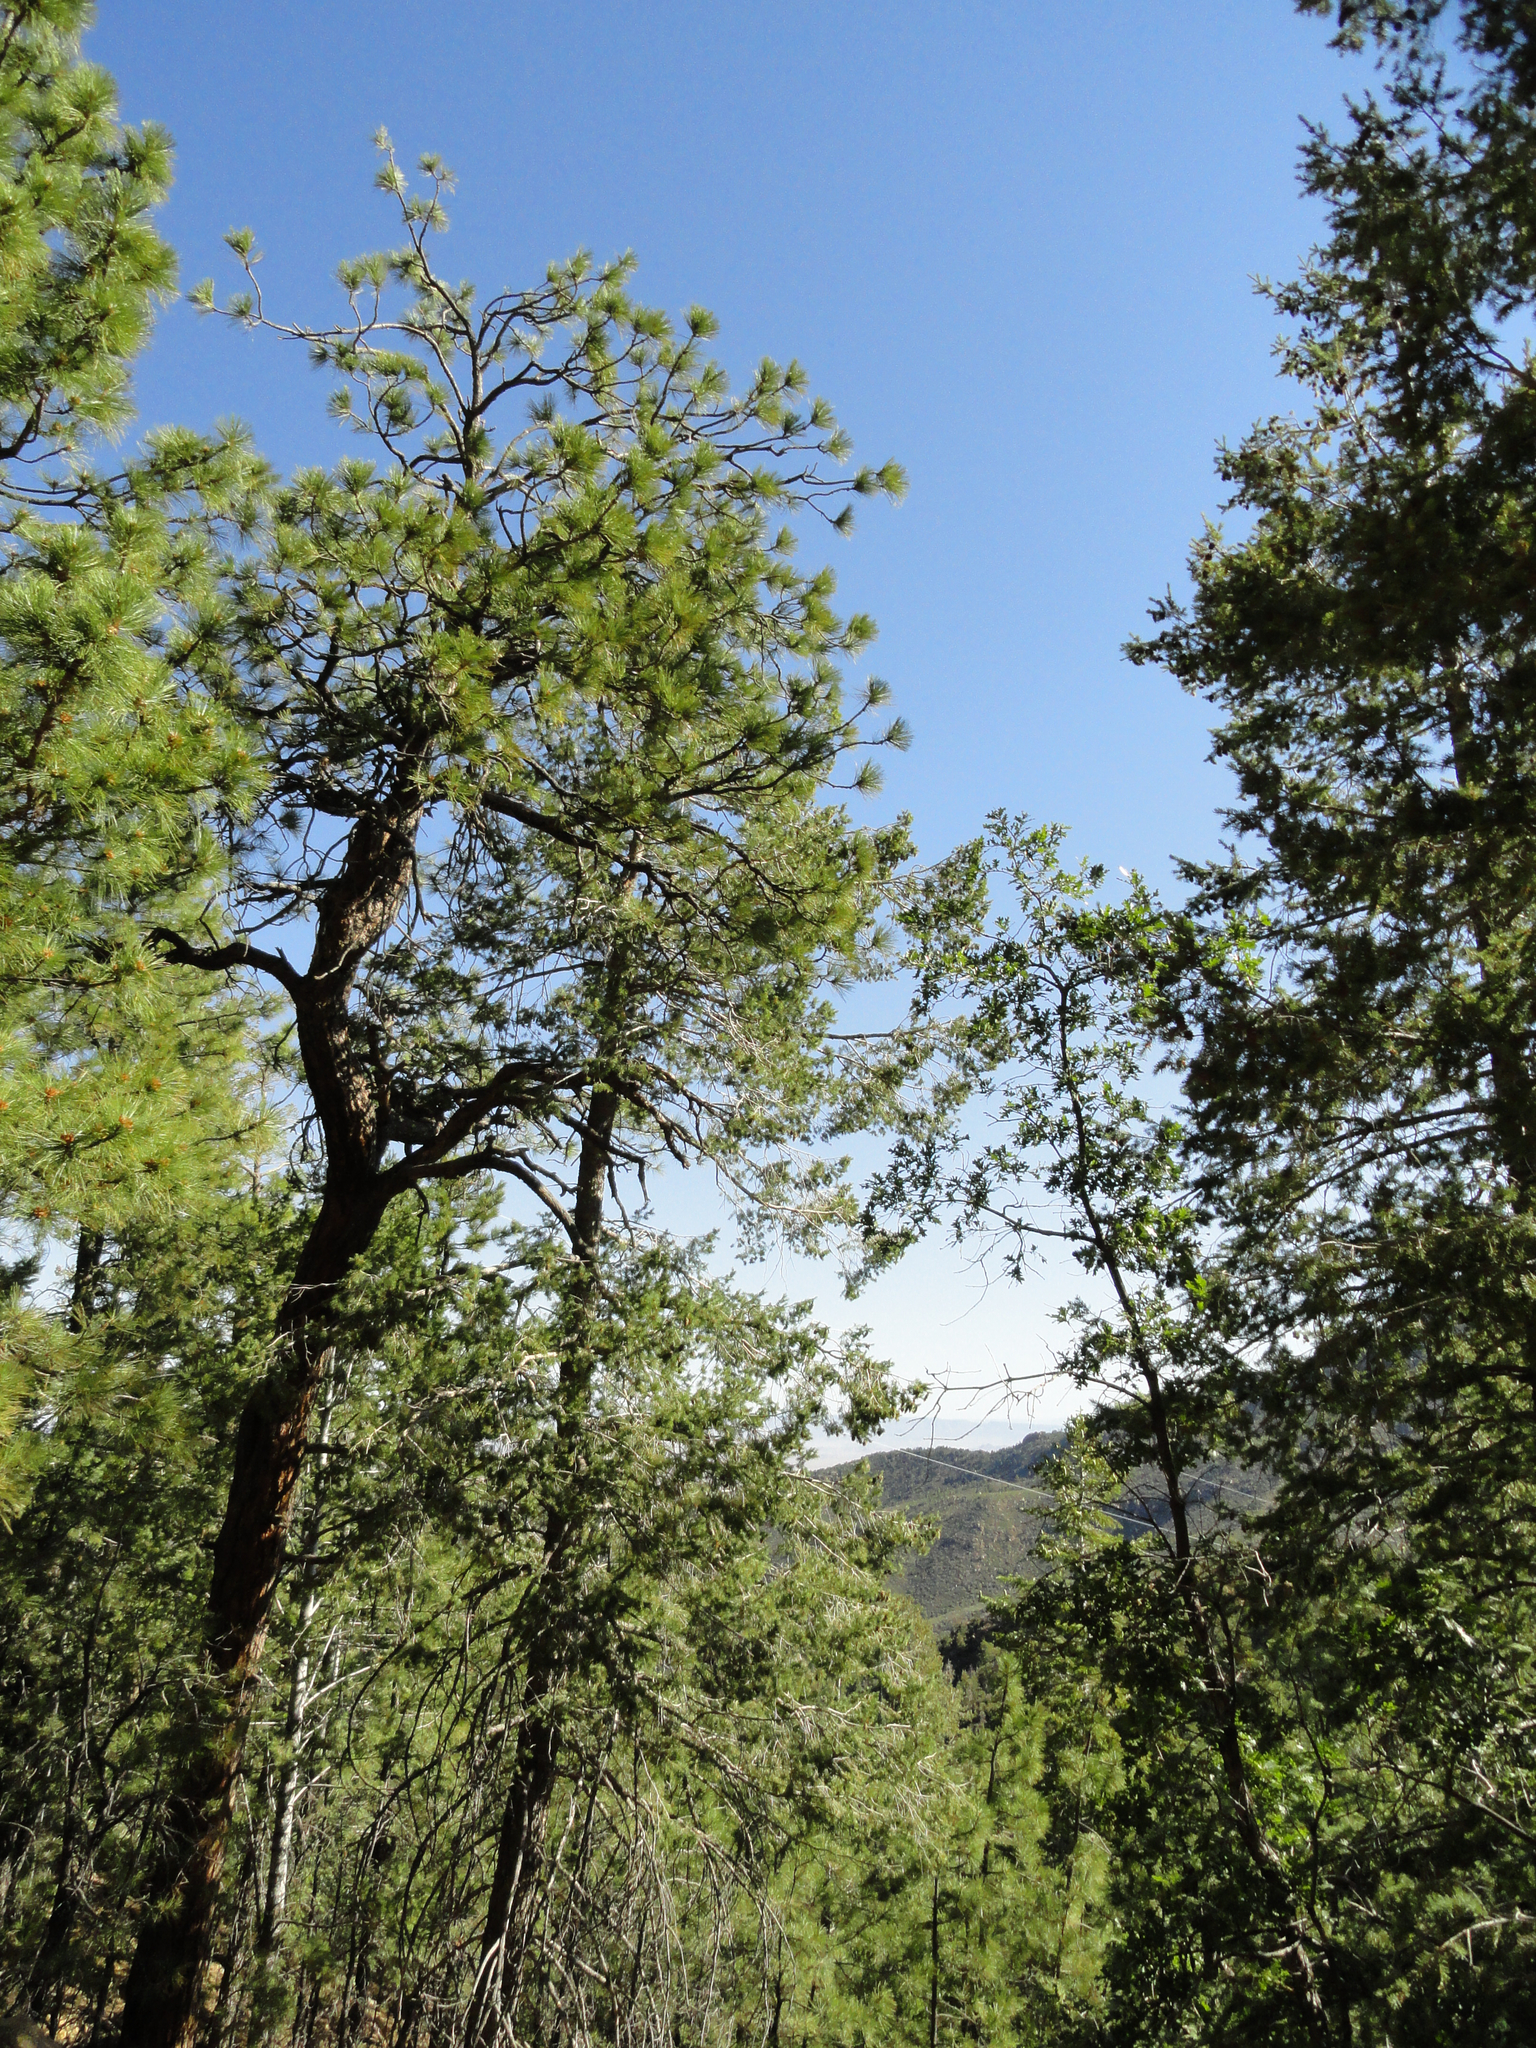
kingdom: Plantae
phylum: Tracheophyta
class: Pinopsida
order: Pinales
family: Pinaceae
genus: Pinus
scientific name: Pinus ponderosa
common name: Western yellow-pine
